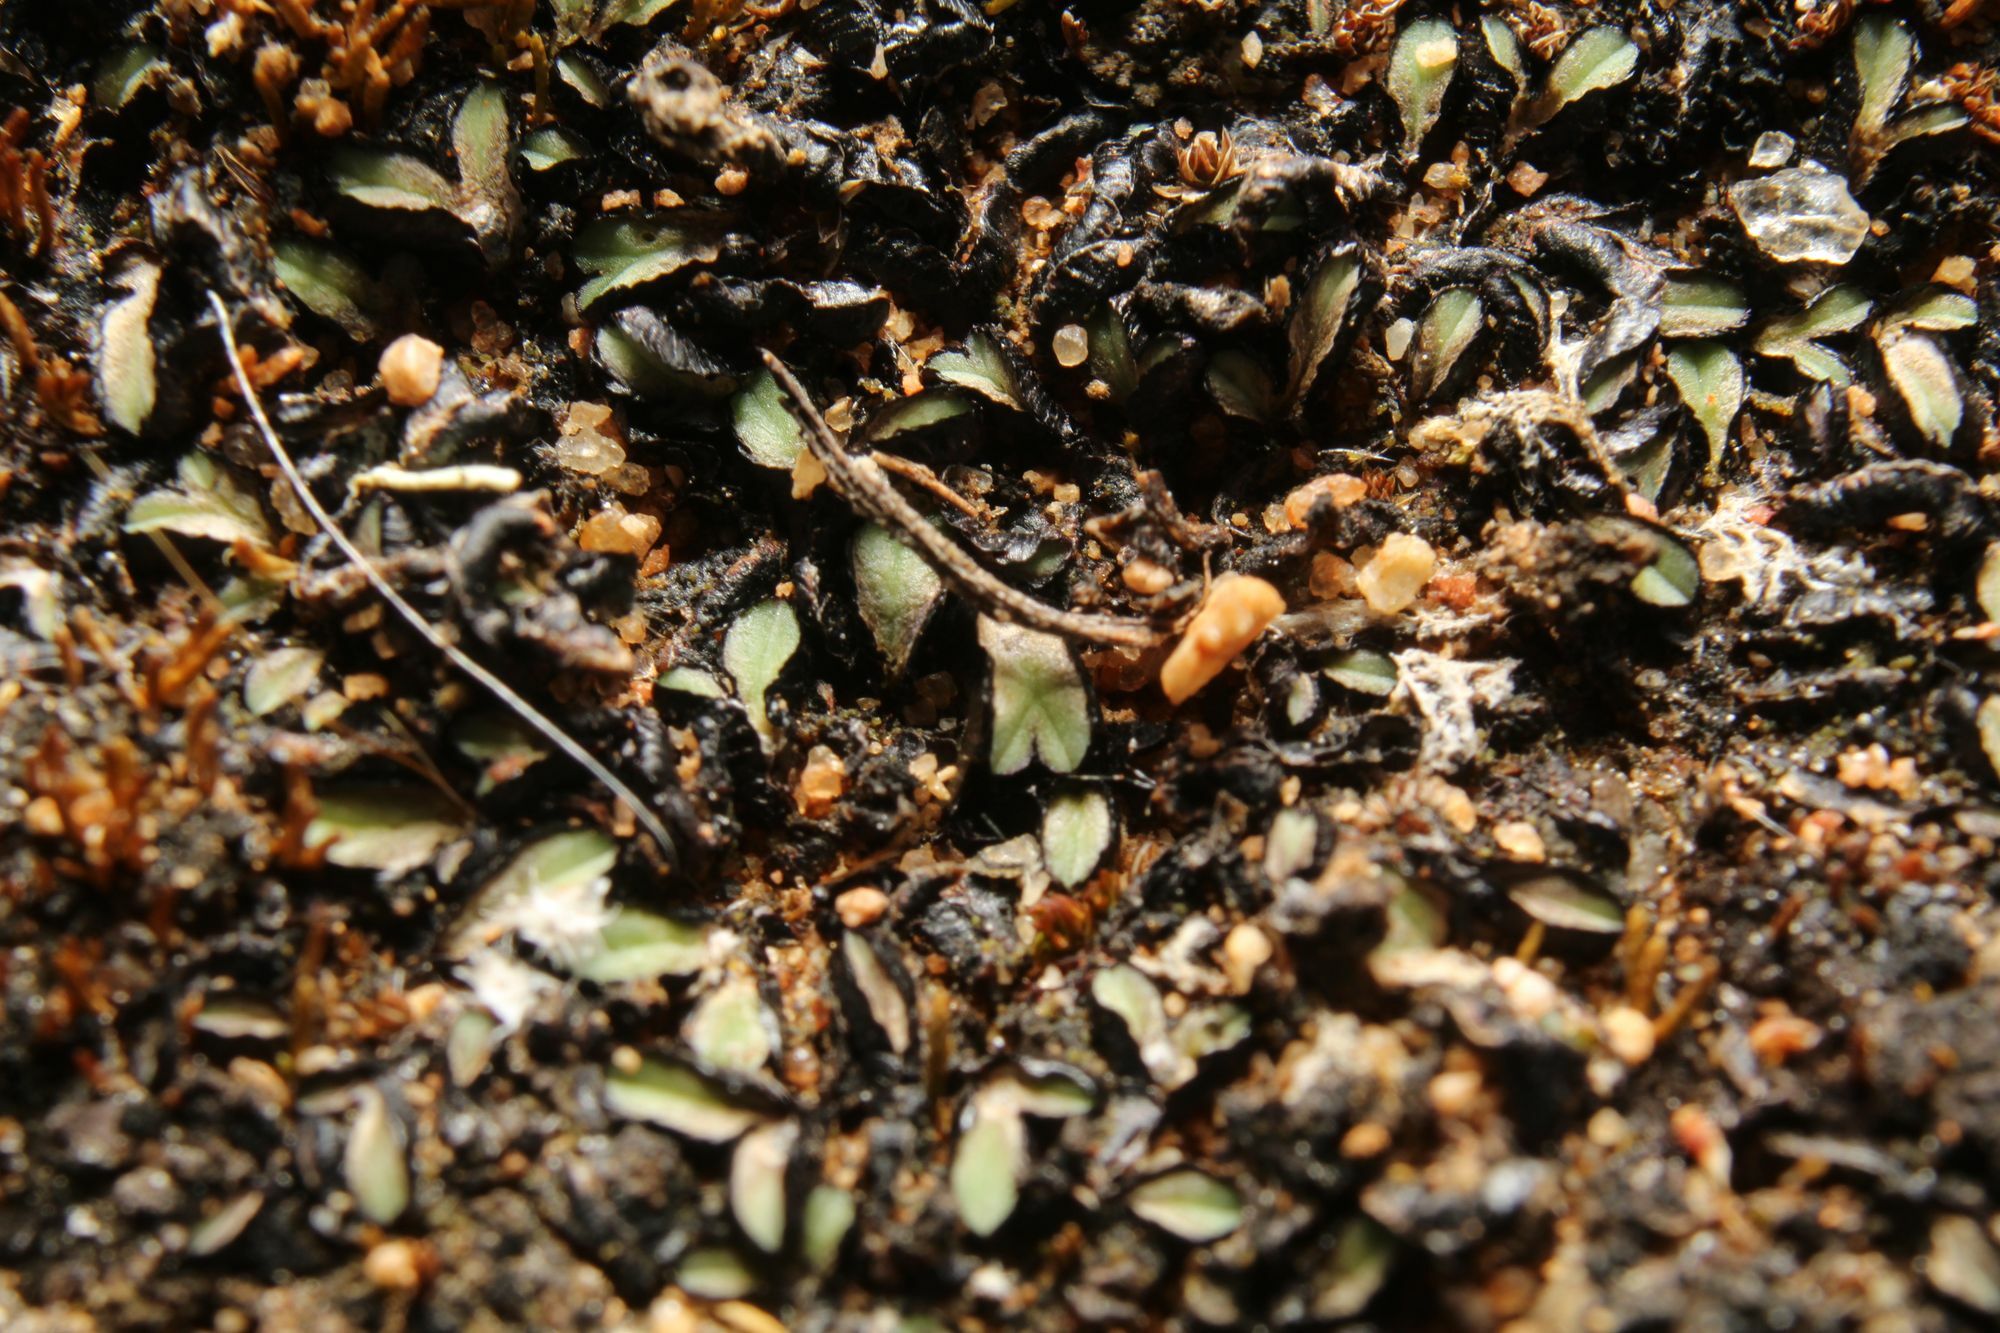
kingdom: Plantae
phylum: Marchantiophyta
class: Marchantiopsida
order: Marchantiales
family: Ricciaceae
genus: Riccia
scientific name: Riccia inflexa
